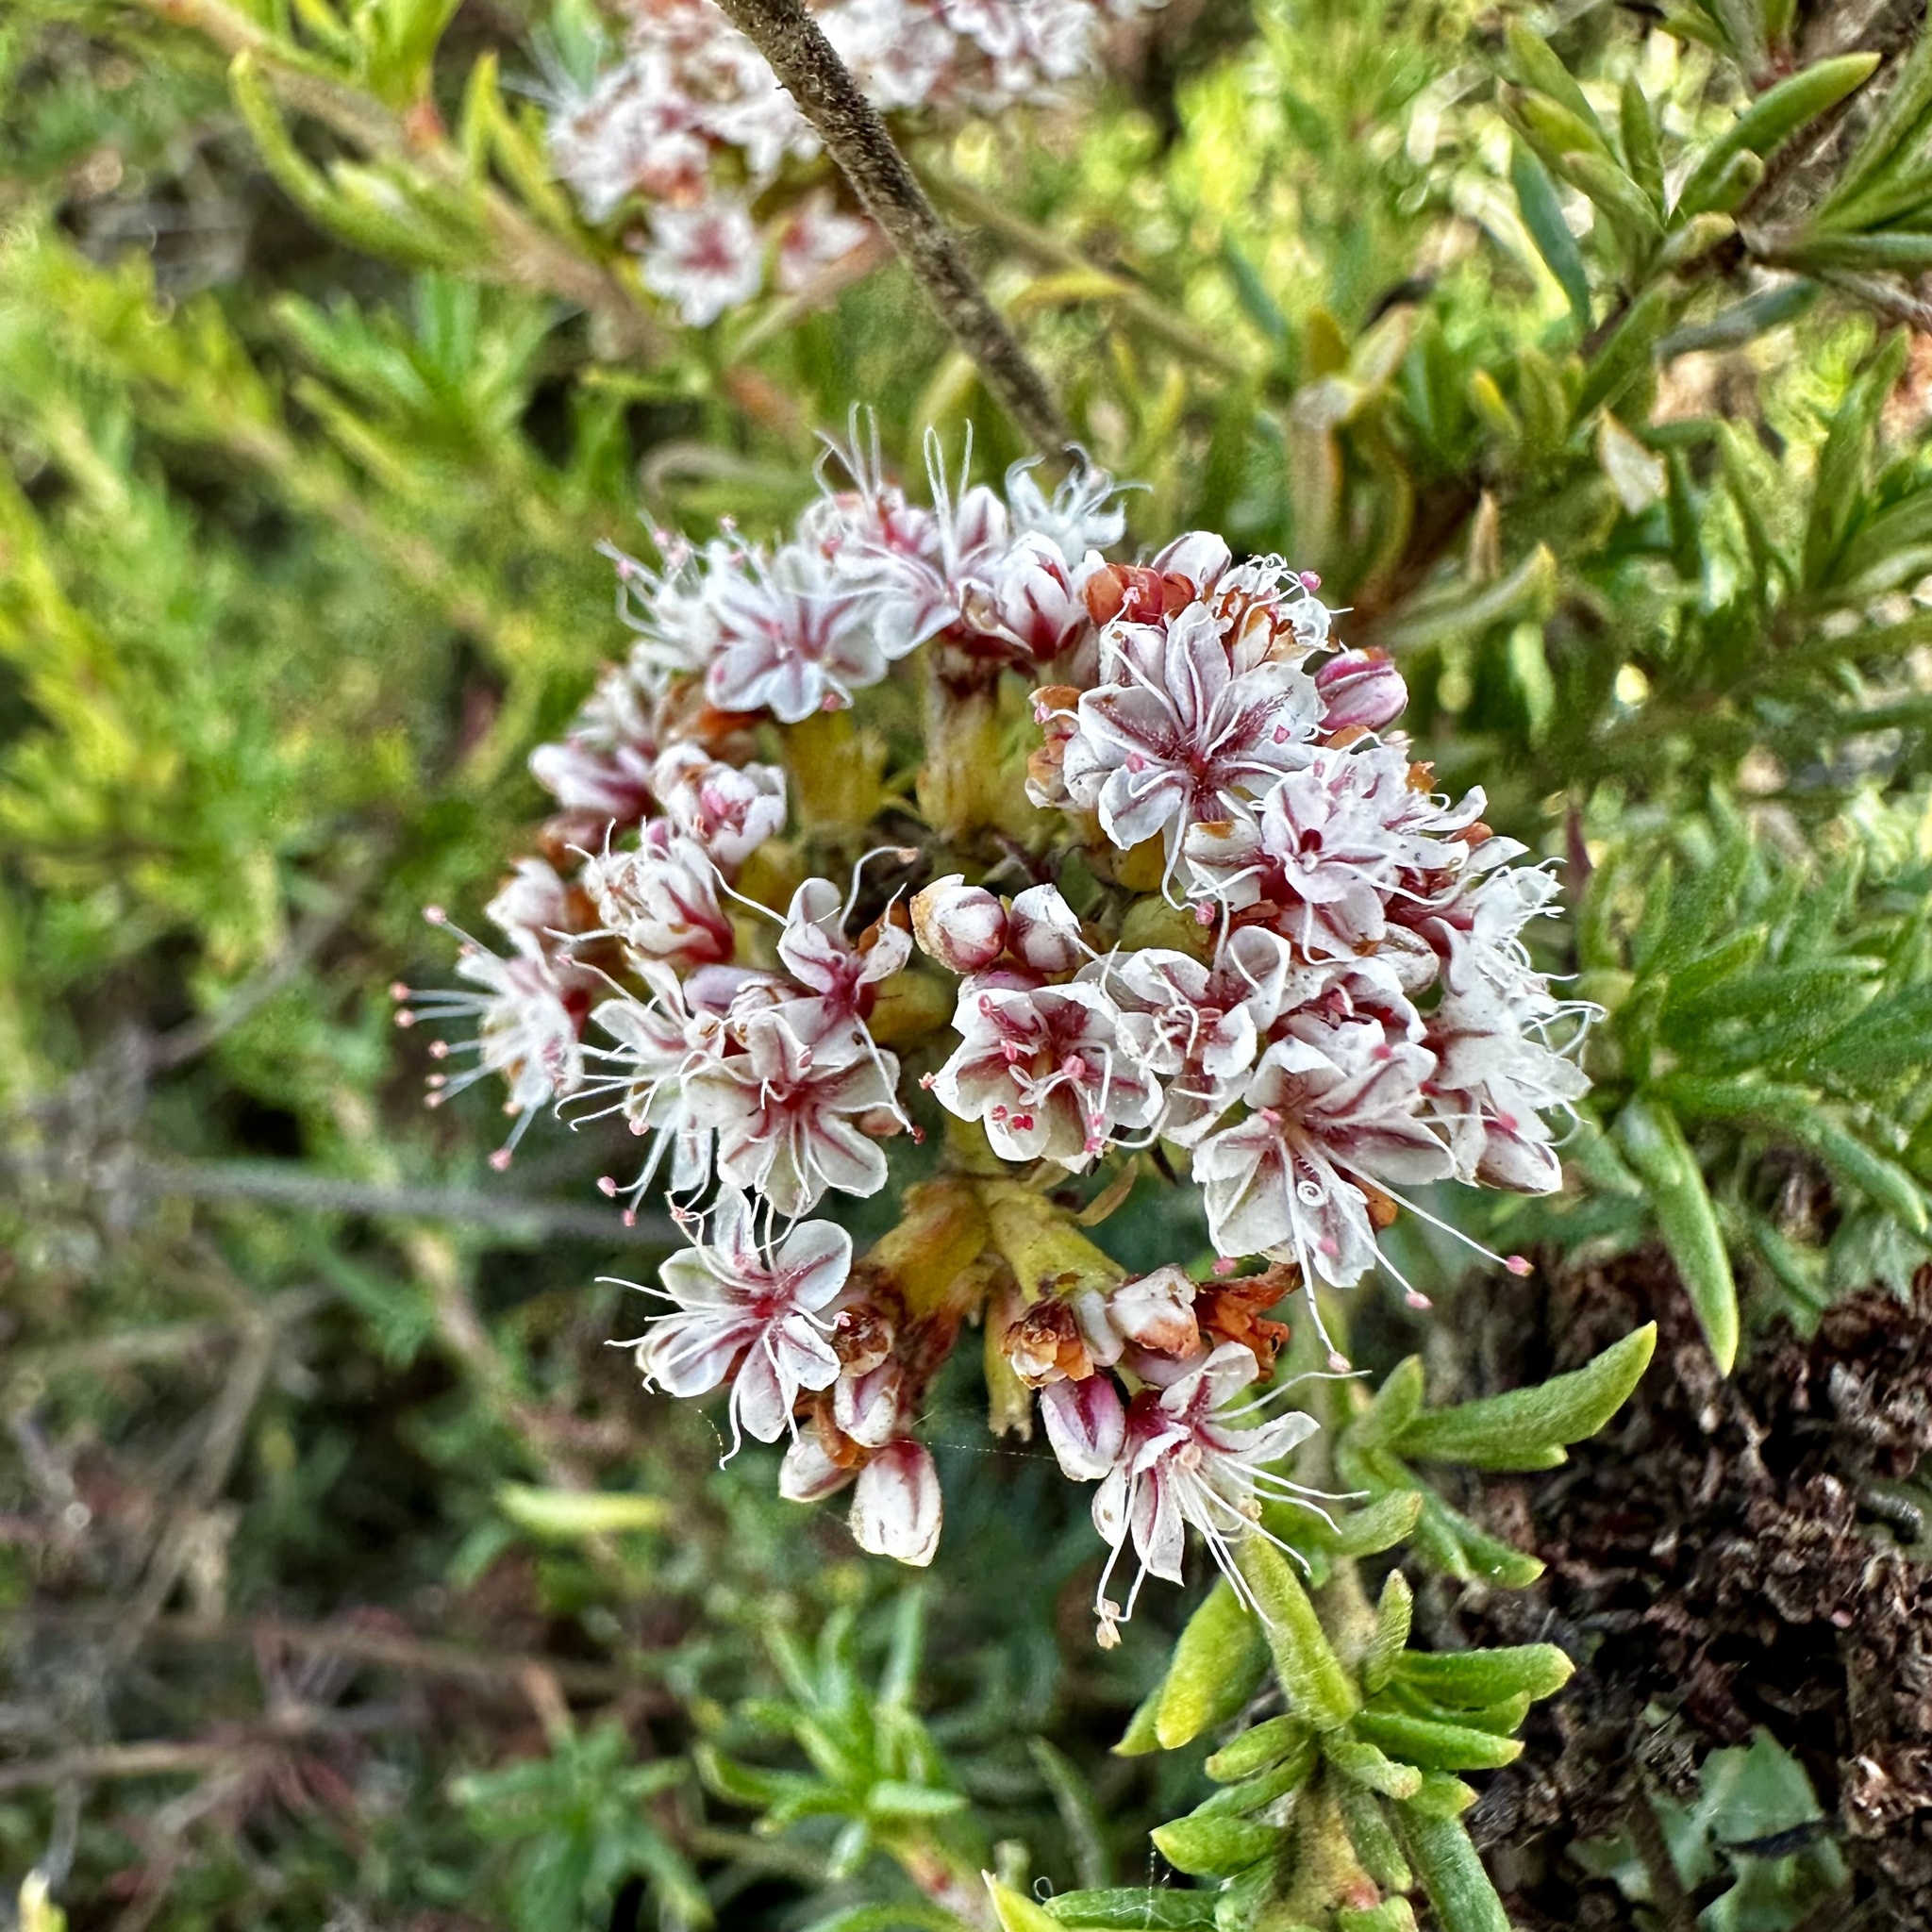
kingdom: Plantae
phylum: Tracheophyta
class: Magnoliopsida
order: Caryophyllales
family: Polygonaceae
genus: Eriogonum
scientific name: Eriogonum fasciculatum
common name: California wild buckwheat
